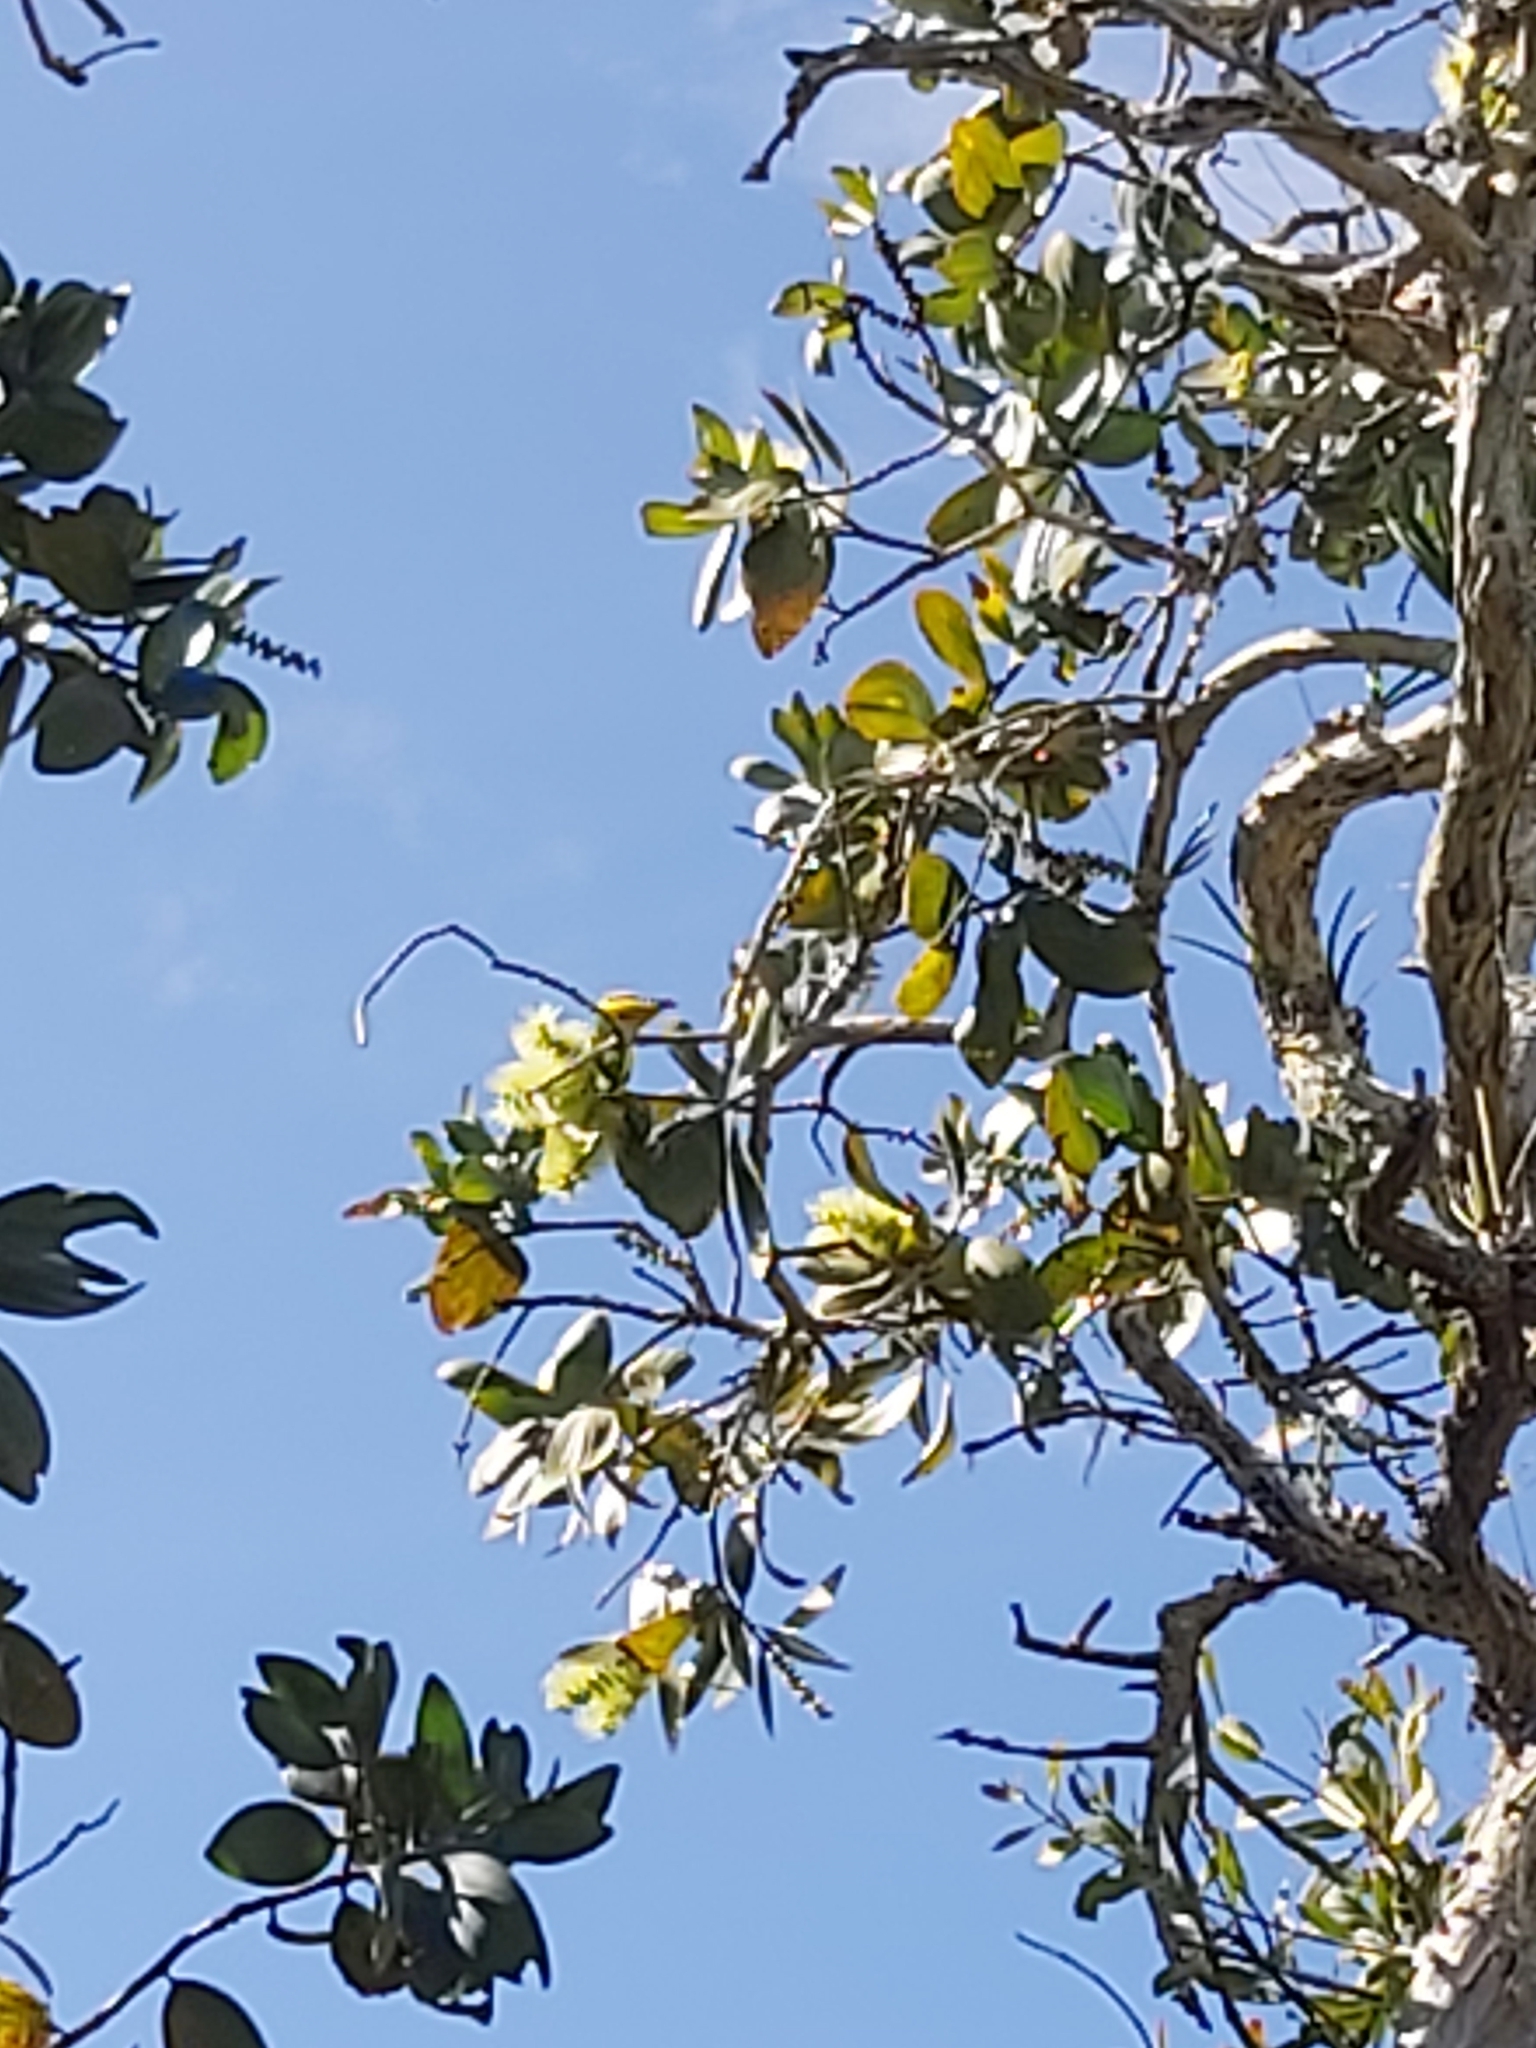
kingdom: Animalia
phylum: Chordata
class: Aves
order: Passeriformes
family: Nectariniidae
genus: Cinnyris
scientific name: Cinnyris
